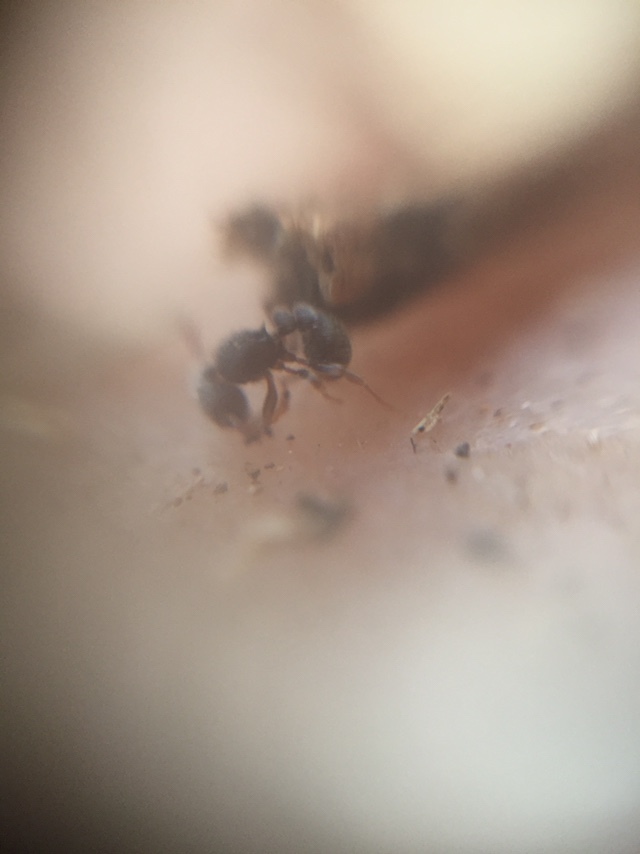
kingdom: Animalia
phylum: Arthropoda
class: Insecta
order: Hymenoptera
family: Formicidae
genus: Tetramorium
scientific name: Tetramorium walshi
